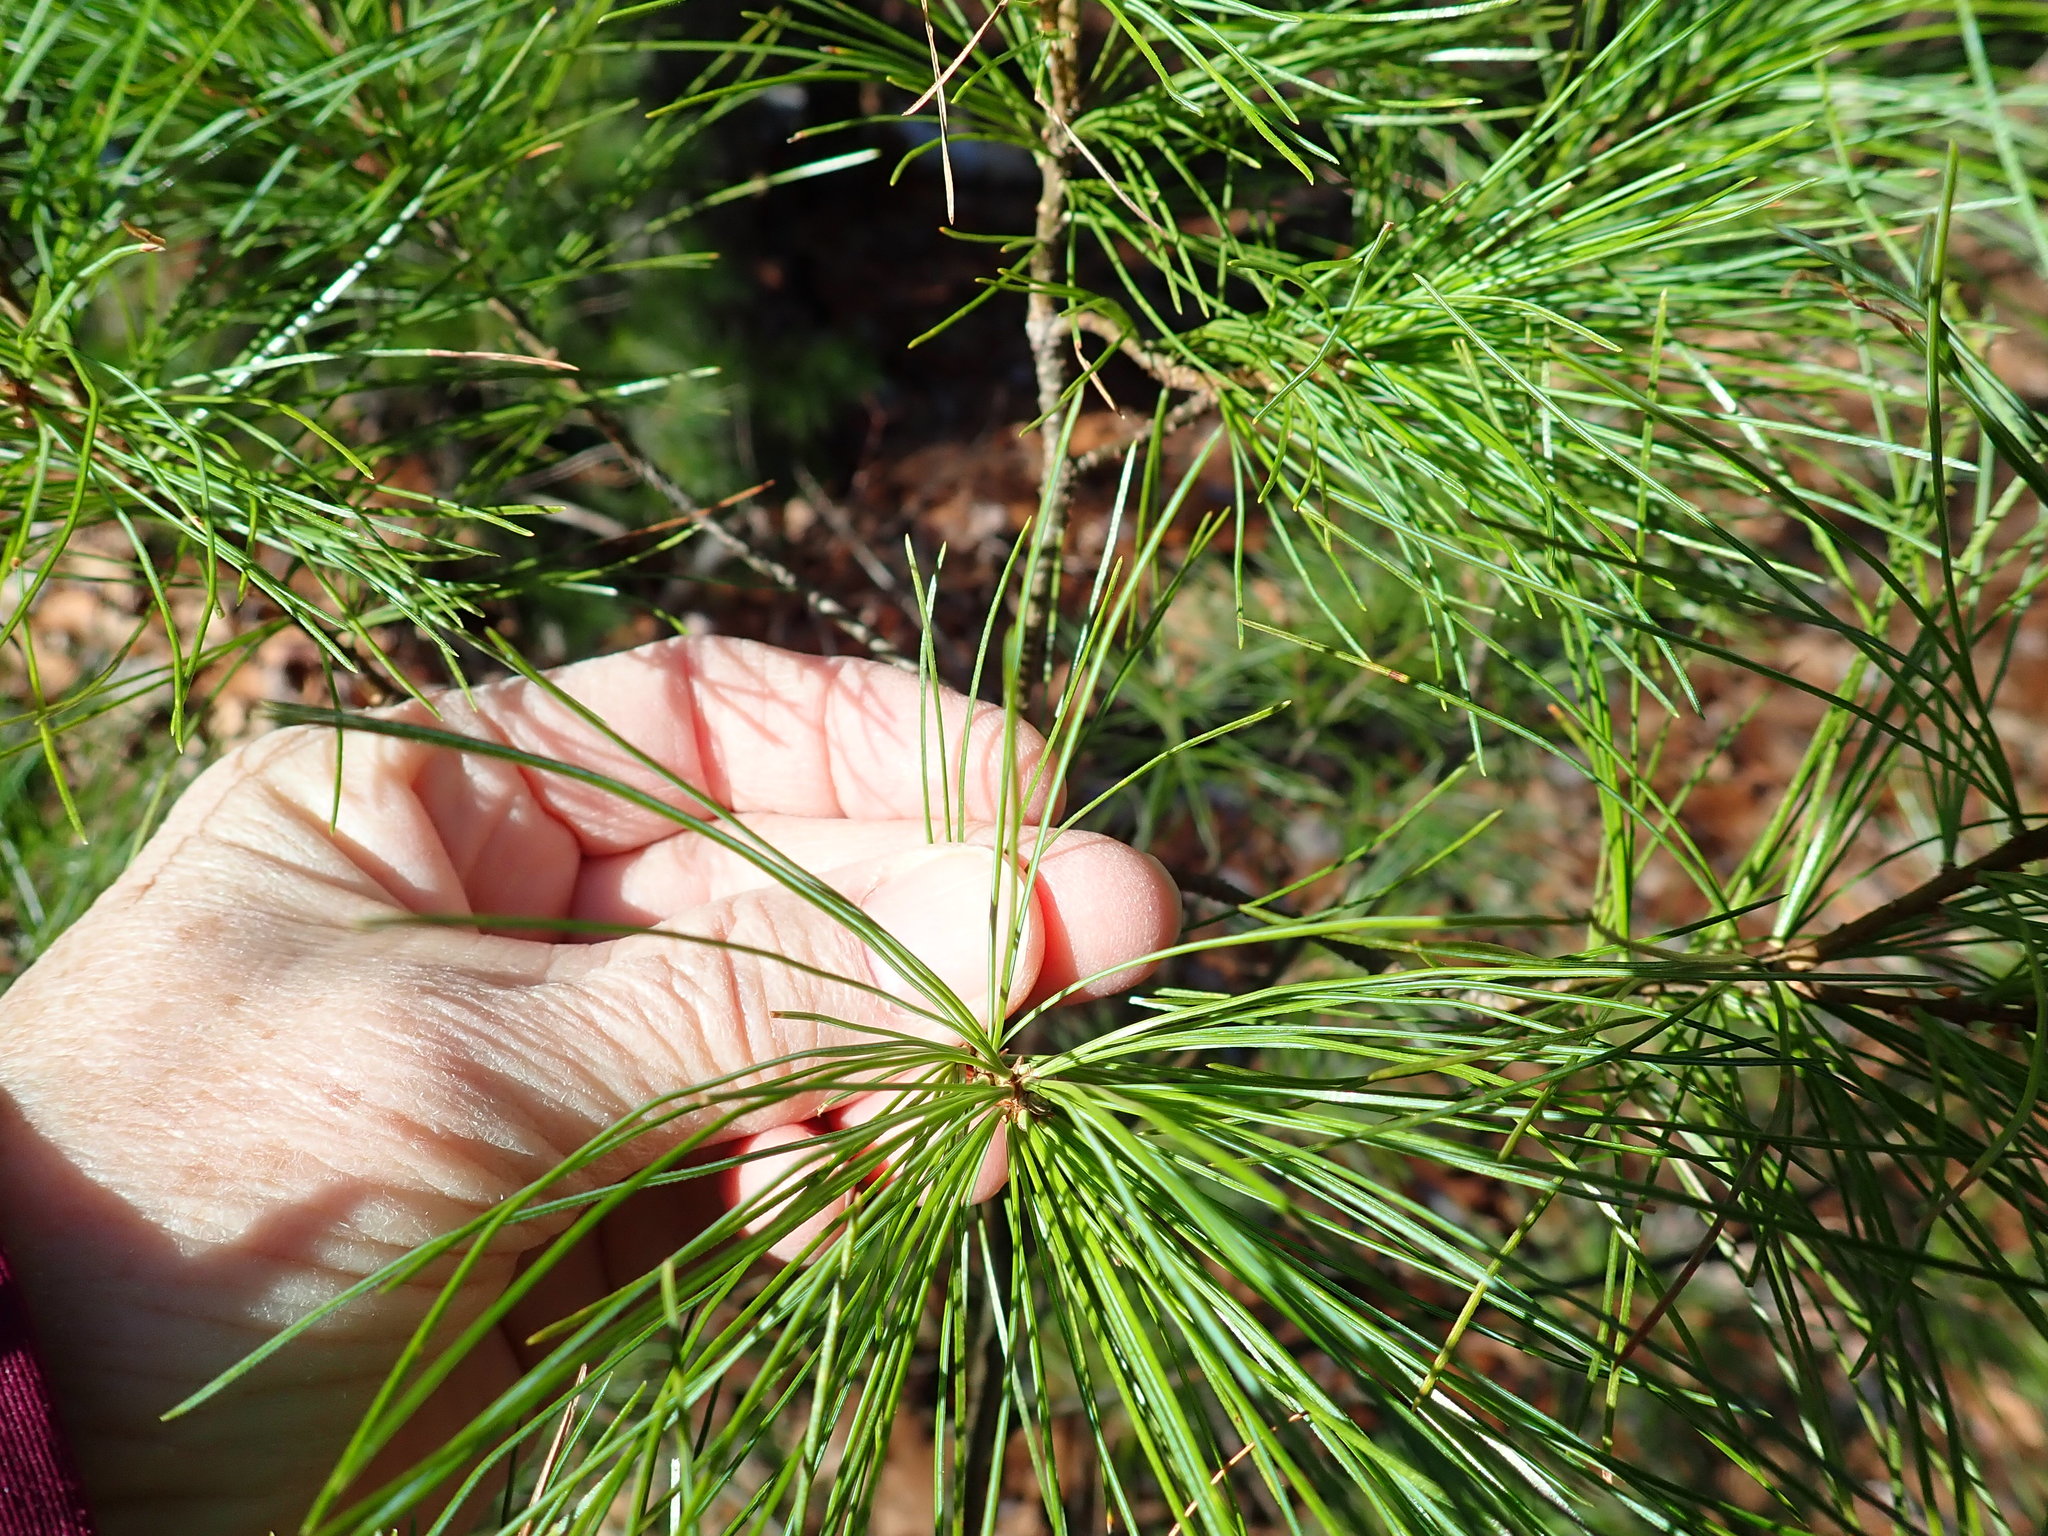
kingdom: Plantae
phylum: Tracheophyta
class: Pinopsida
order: Pinales
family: Pinaceae
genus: Pinus
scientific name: Pinus strobus
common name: Weymouth pine
